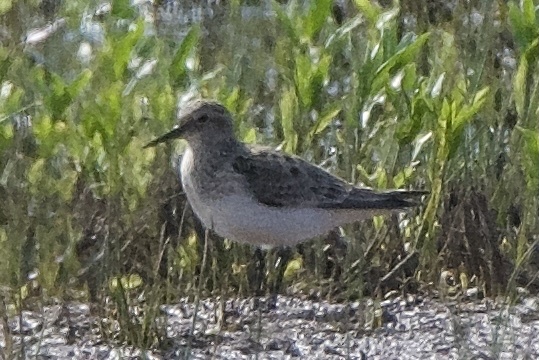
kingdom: Animalia
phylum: Chordata
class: Aves
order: Charadriiformes
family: Scolopacidae
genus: Calidris
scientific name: Calidris bairdii
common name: Baird's sandpiper
